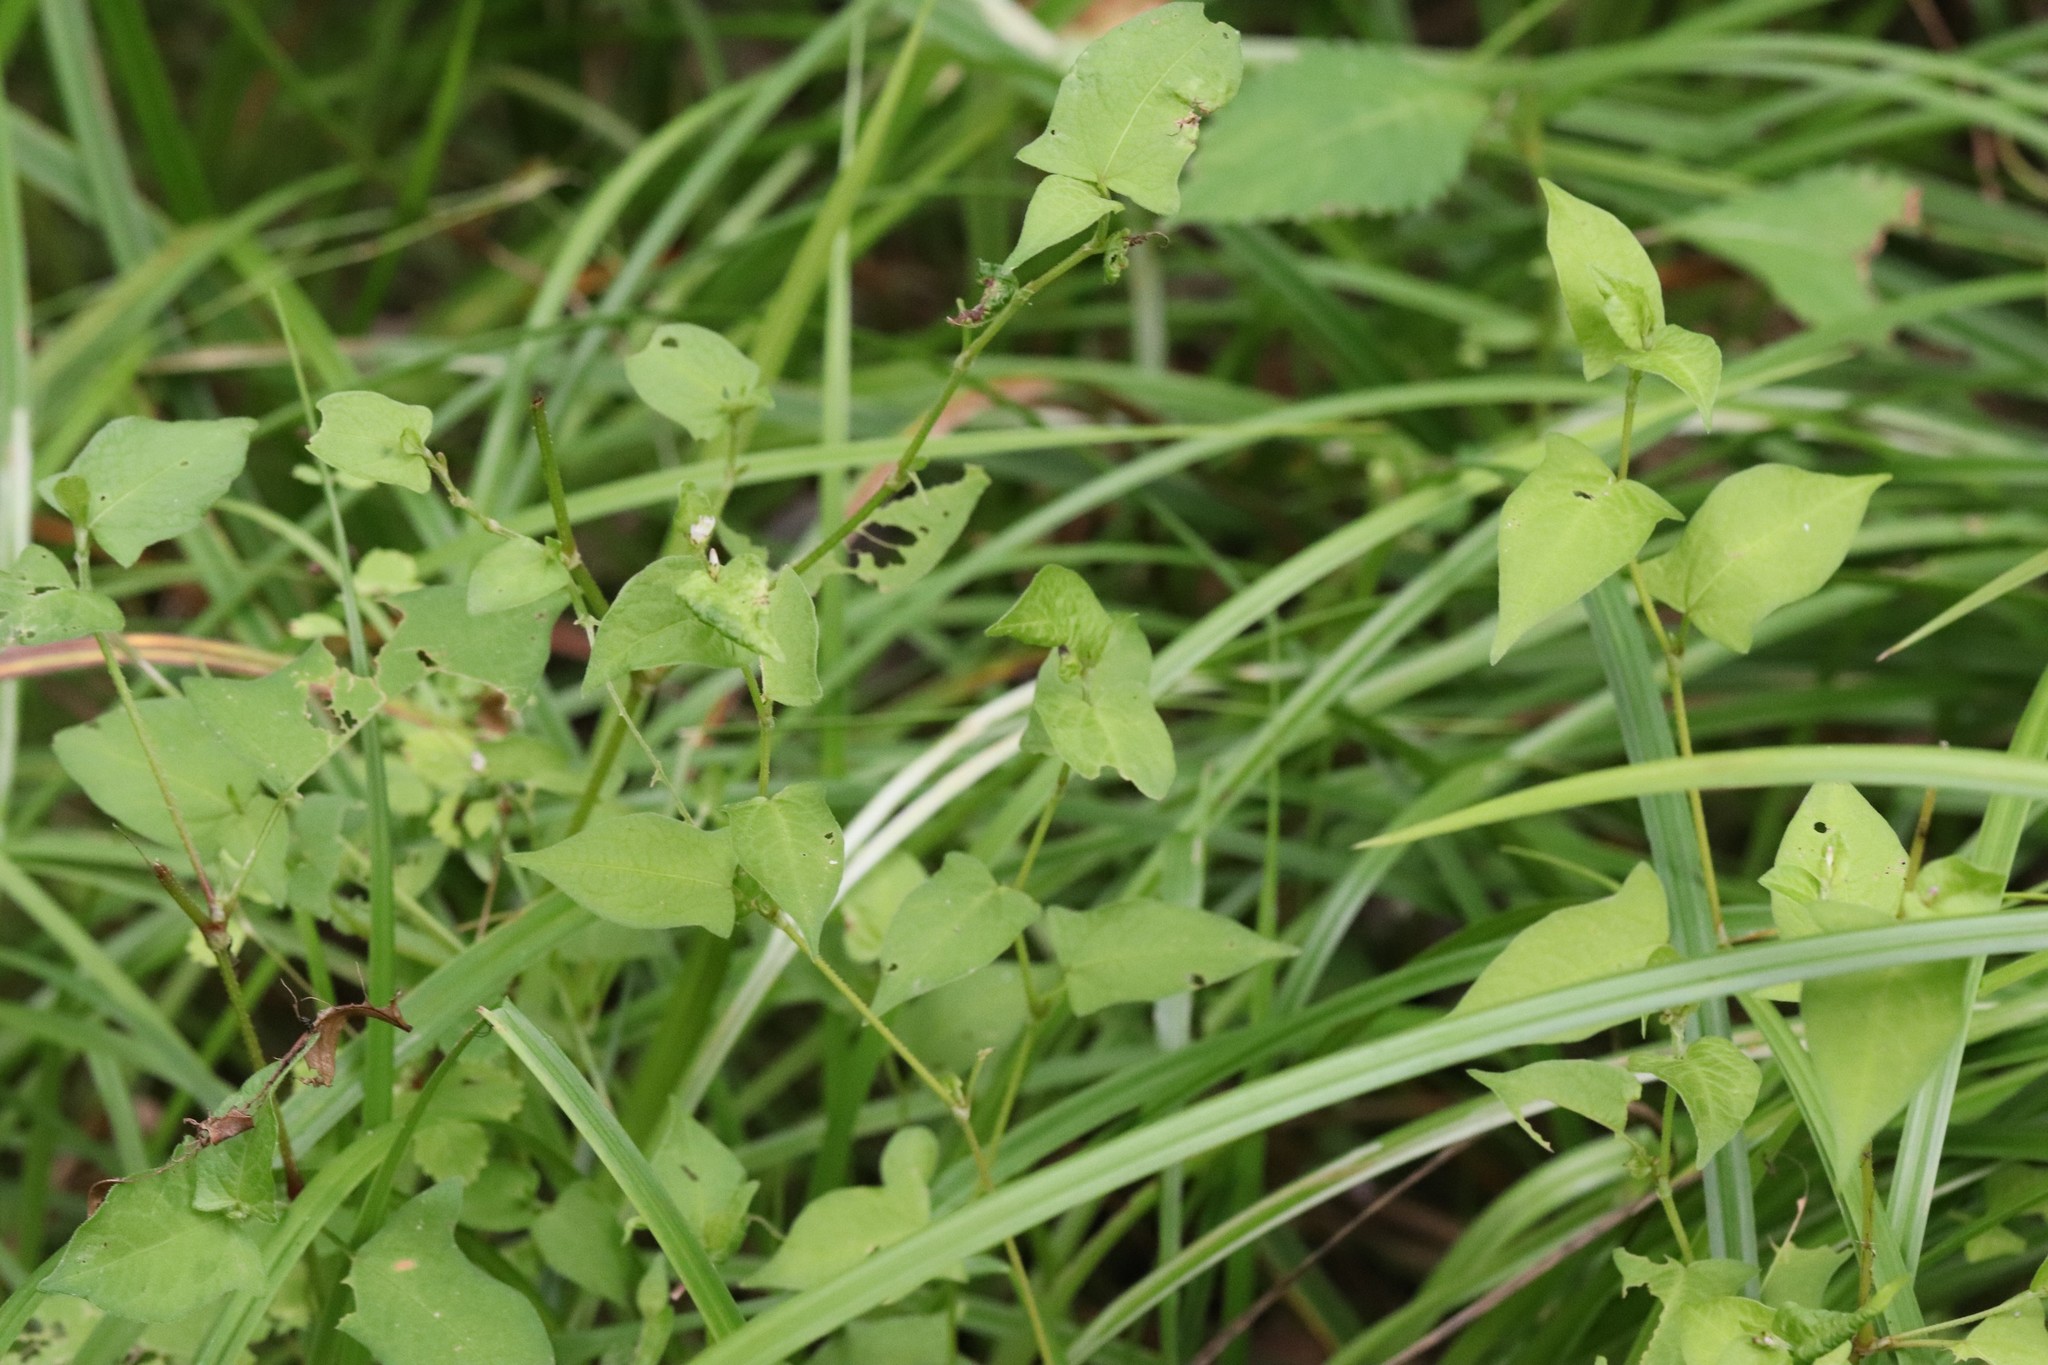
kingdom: Plantae
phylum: Tracheophyta
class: Magnoliopsida
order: Caryophyllales
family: Polygonaceae
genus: Persicaria
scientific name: Persicaria thunbergii
